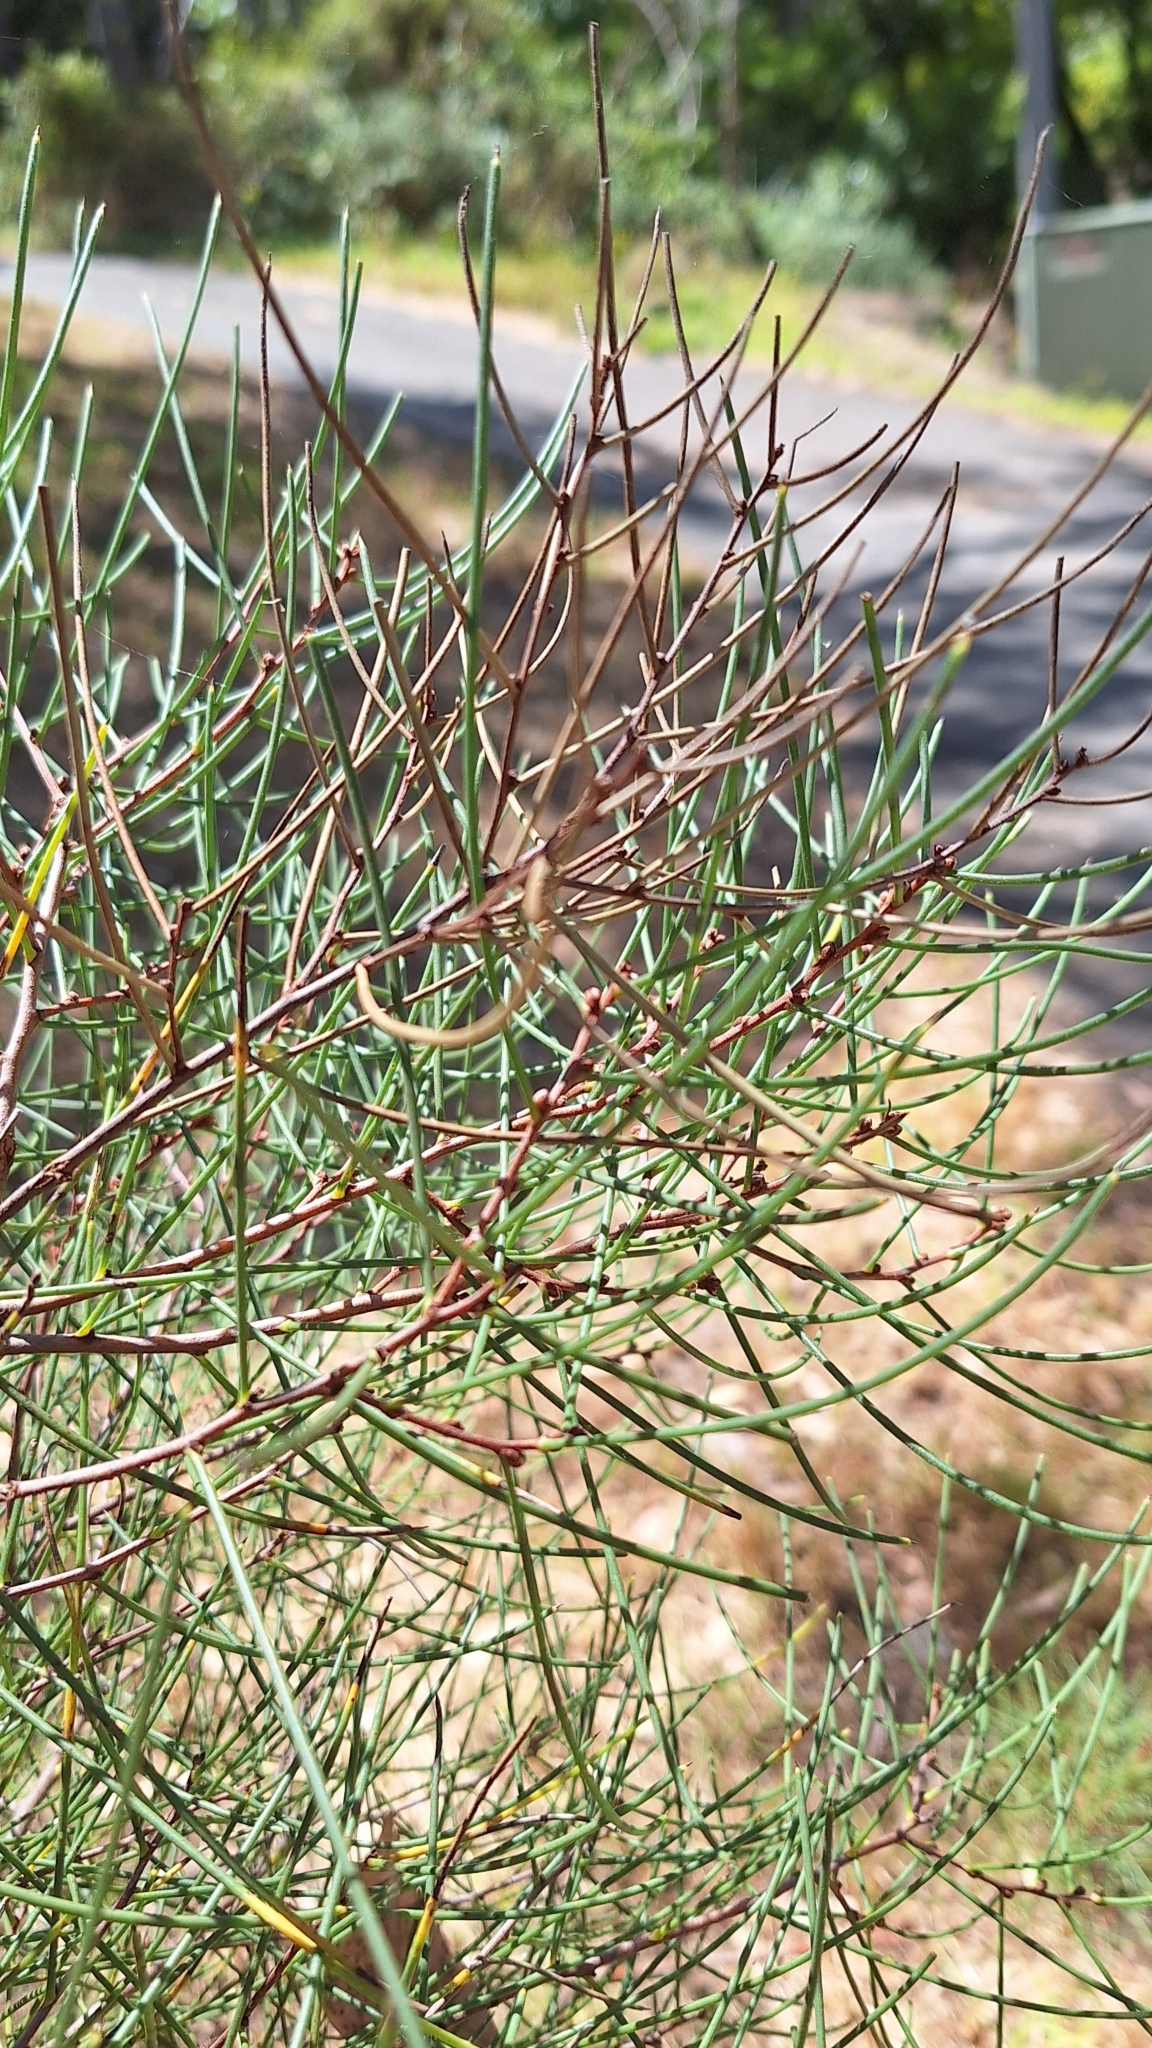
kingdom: Plantae
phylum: Tracheophyta
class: Magnoliopsida
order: Proteales
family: Proteaceae
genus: Hakea
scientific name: Hakea rostrata
